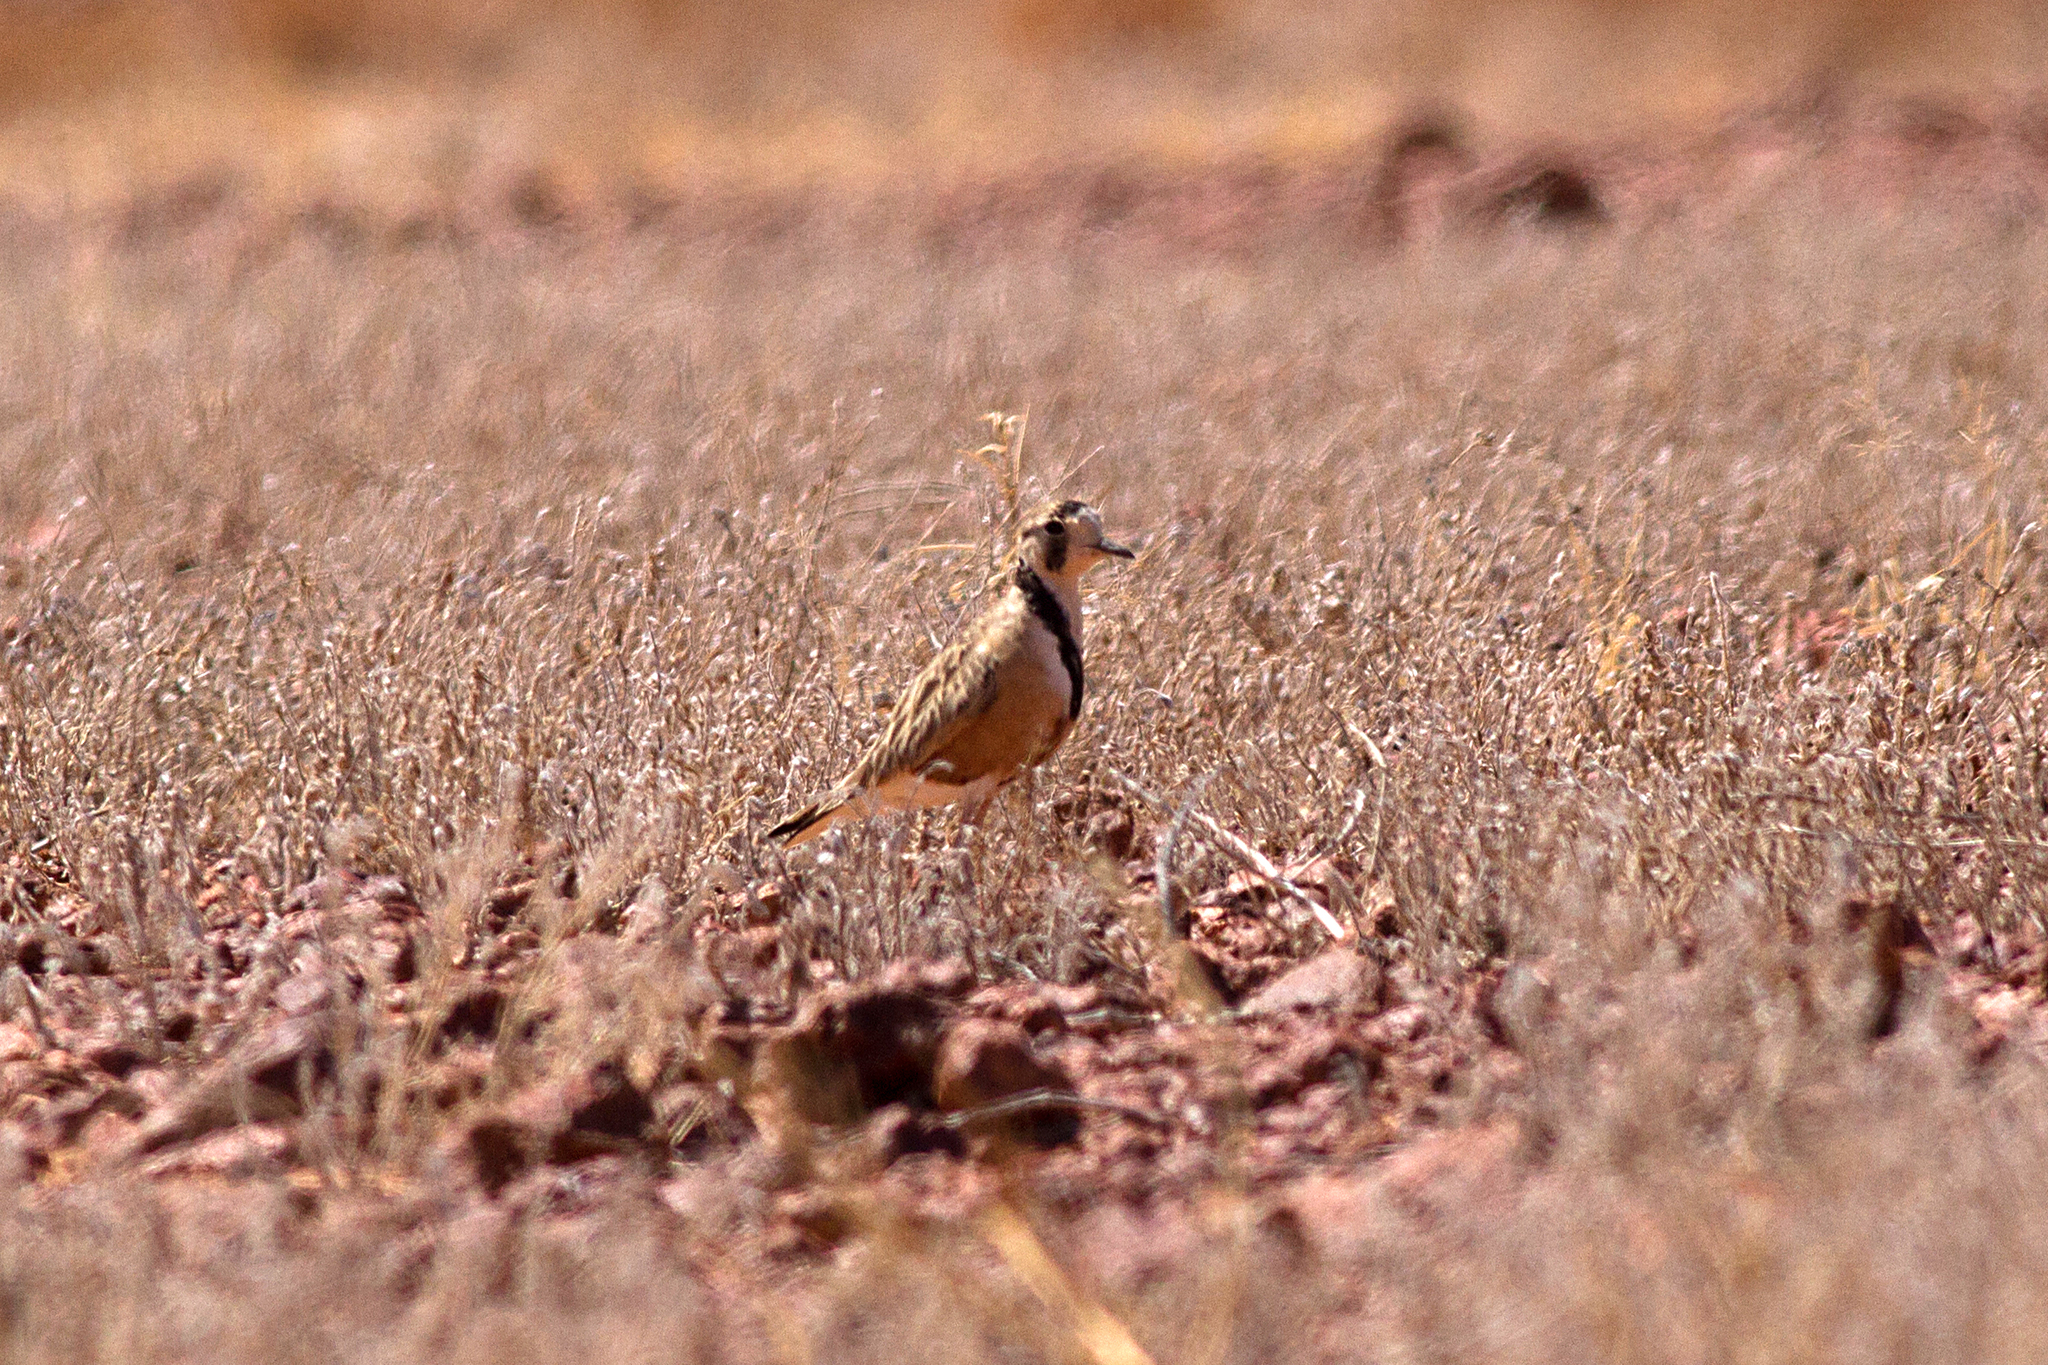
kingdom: Animalia
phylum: Chordata
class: Aves
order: Charadriiformes
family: Charadriidae
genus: Peltohyas
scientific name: Peltohyas australis
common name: Inland dotterel
